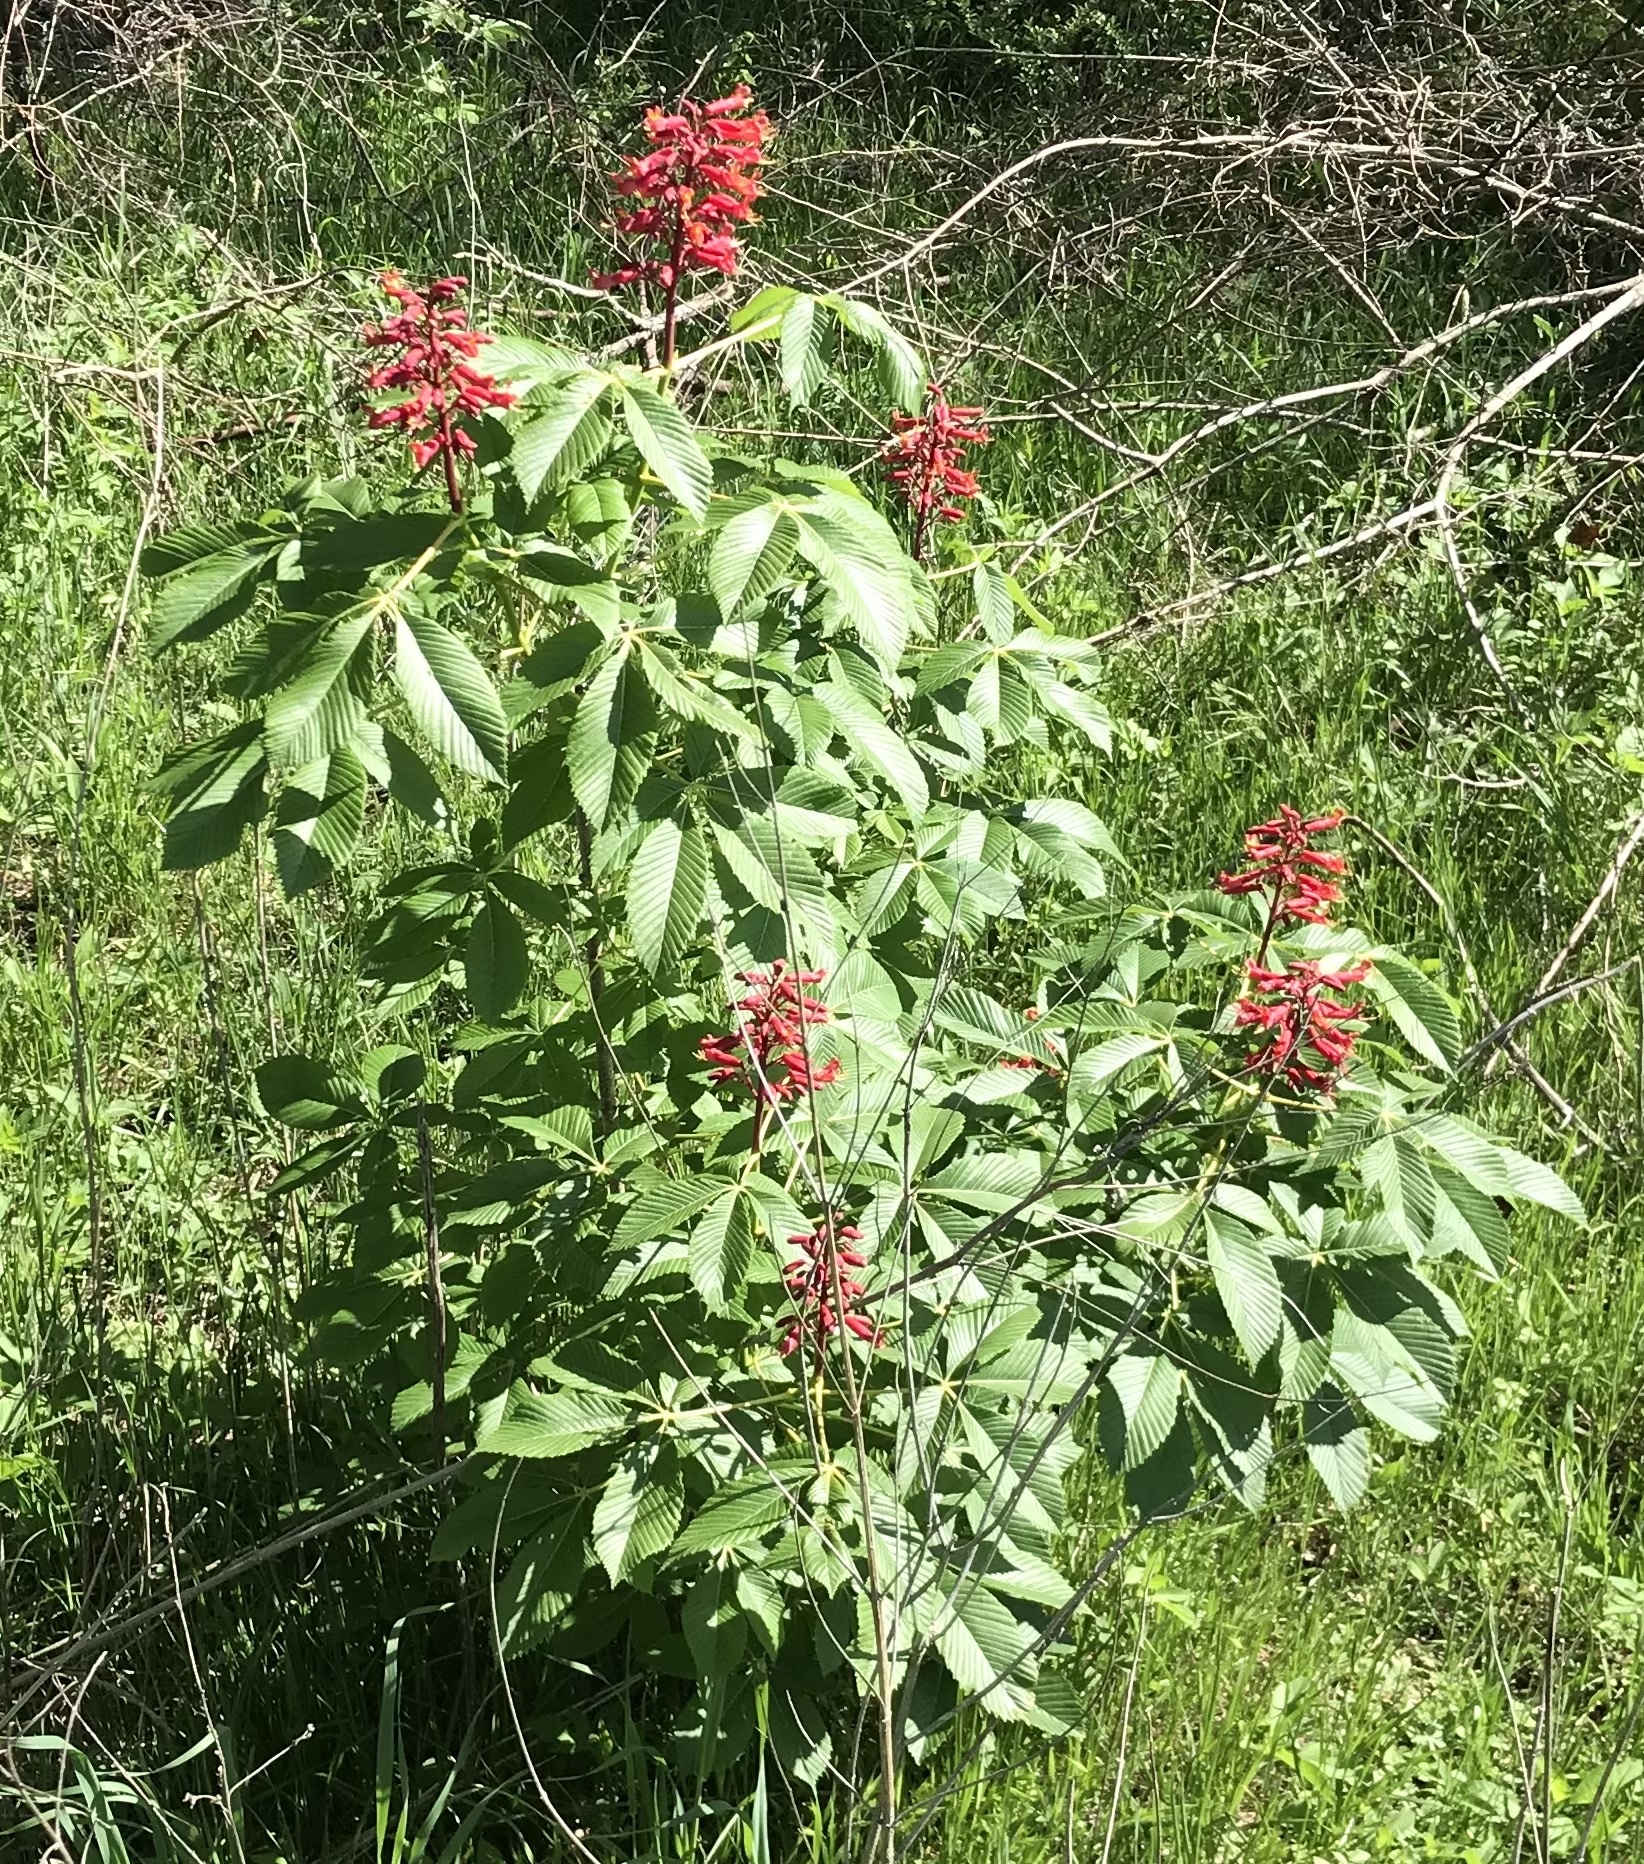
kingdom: Plantae
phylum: Tracheophyta
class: Magnoliopsida
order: Sapindales
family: Sapindaceae
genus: Aesculus
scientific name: Aesculus pavia
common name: Red buckeye
